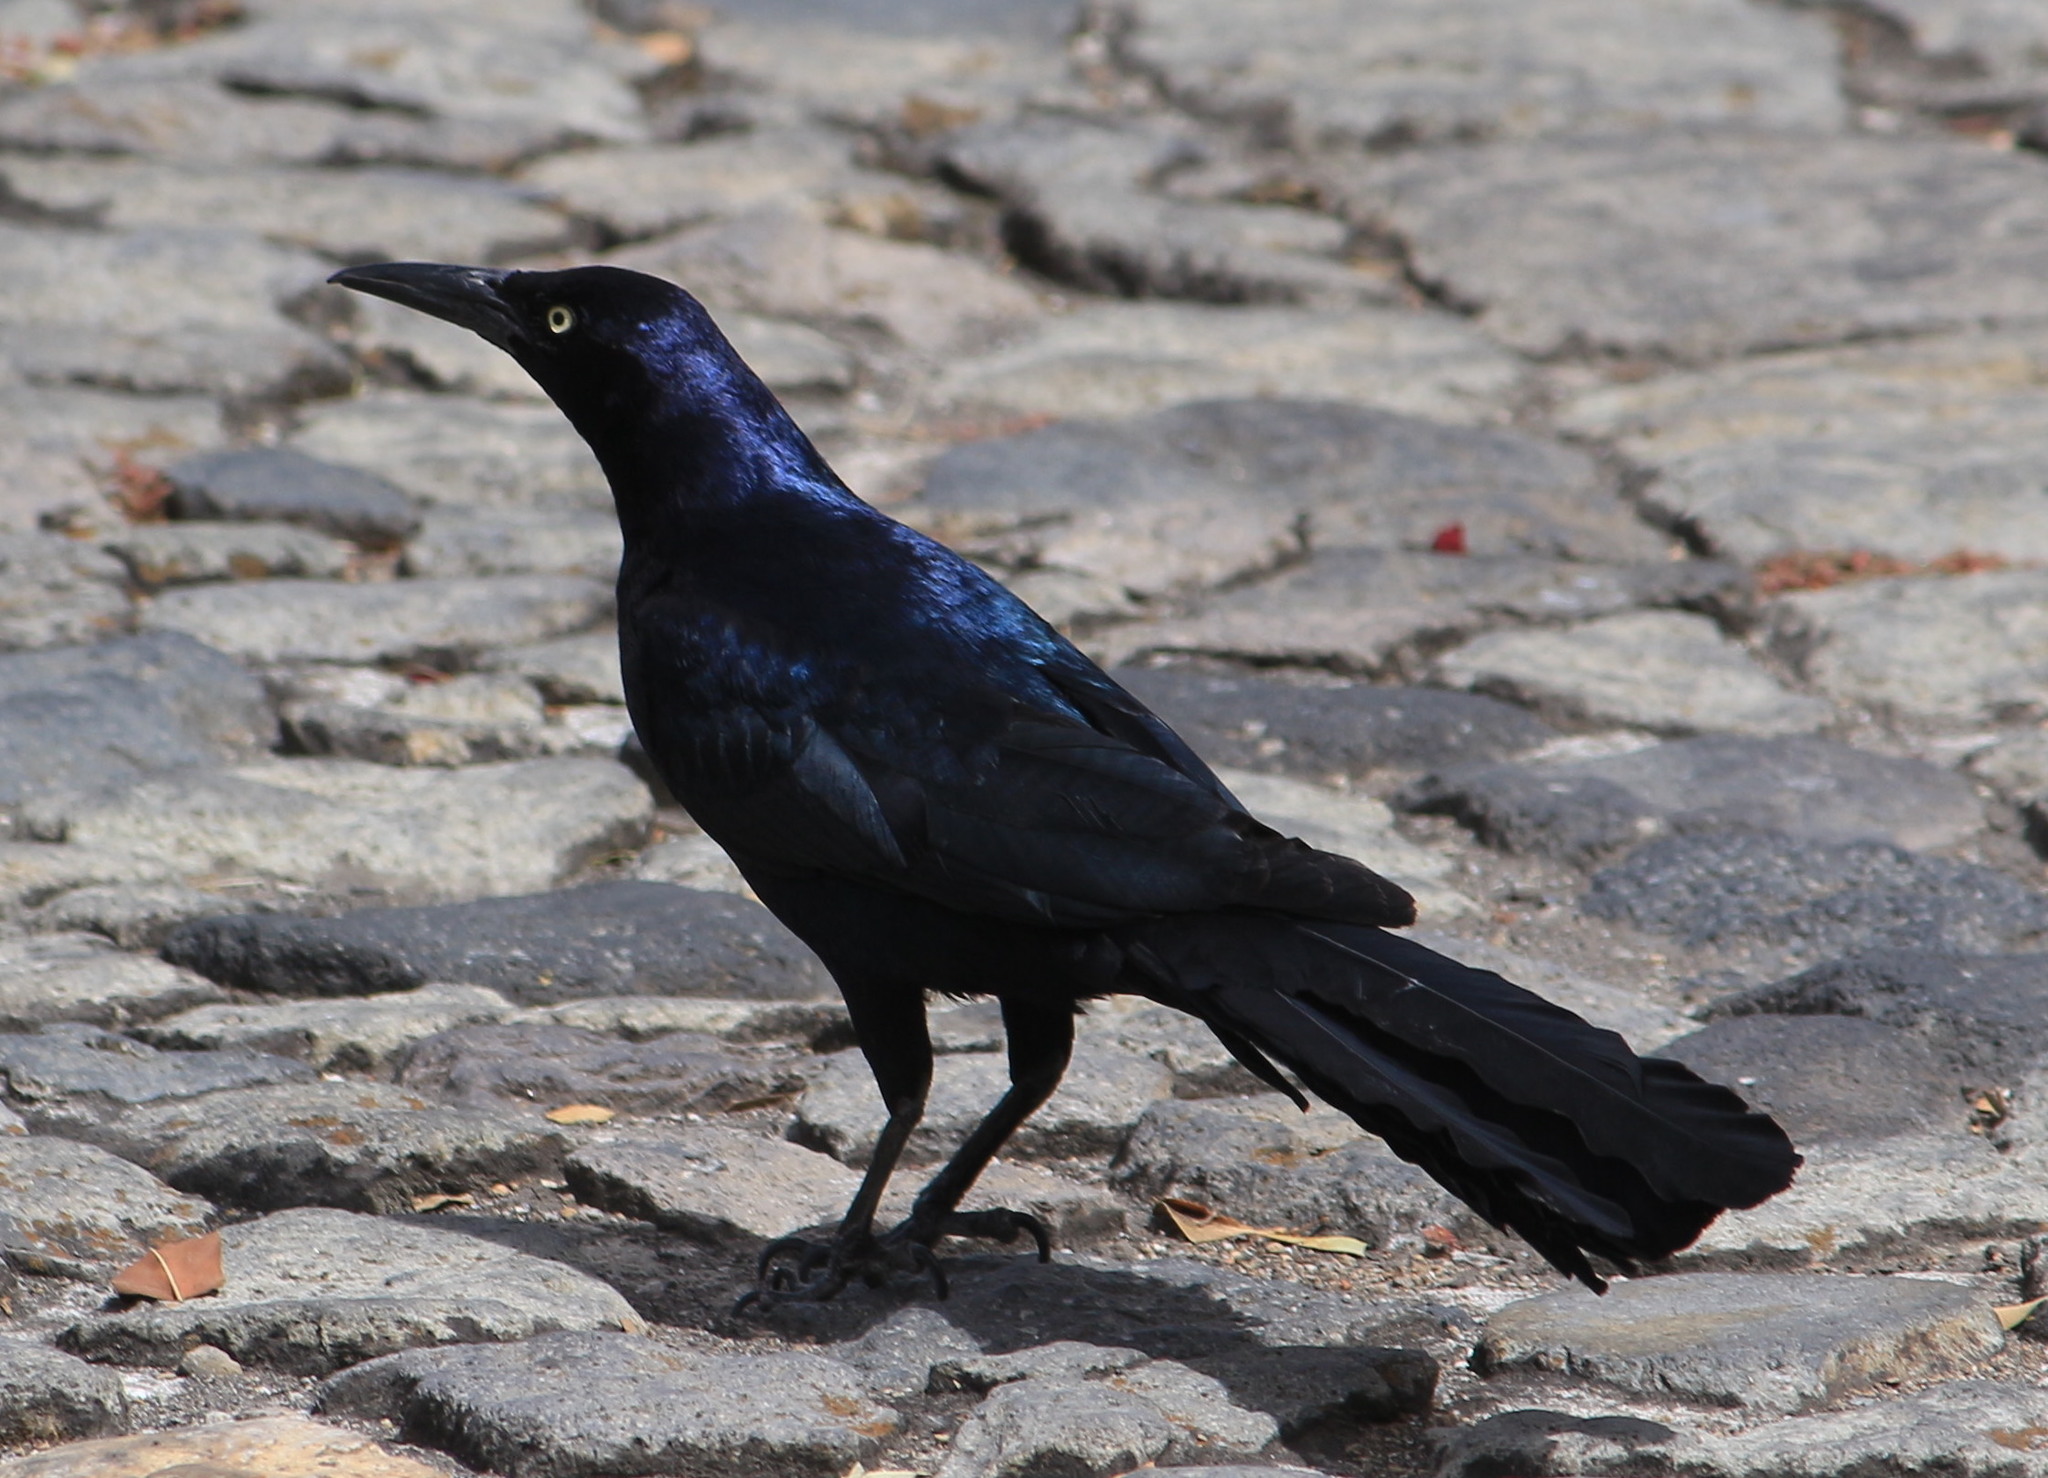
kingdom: Animalia
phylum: Chordata
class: Aves
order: Passeriformes
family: Icteridae
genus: Quiscalus
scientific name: Quiscalus mexicanus
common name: Great-tailed grackle
